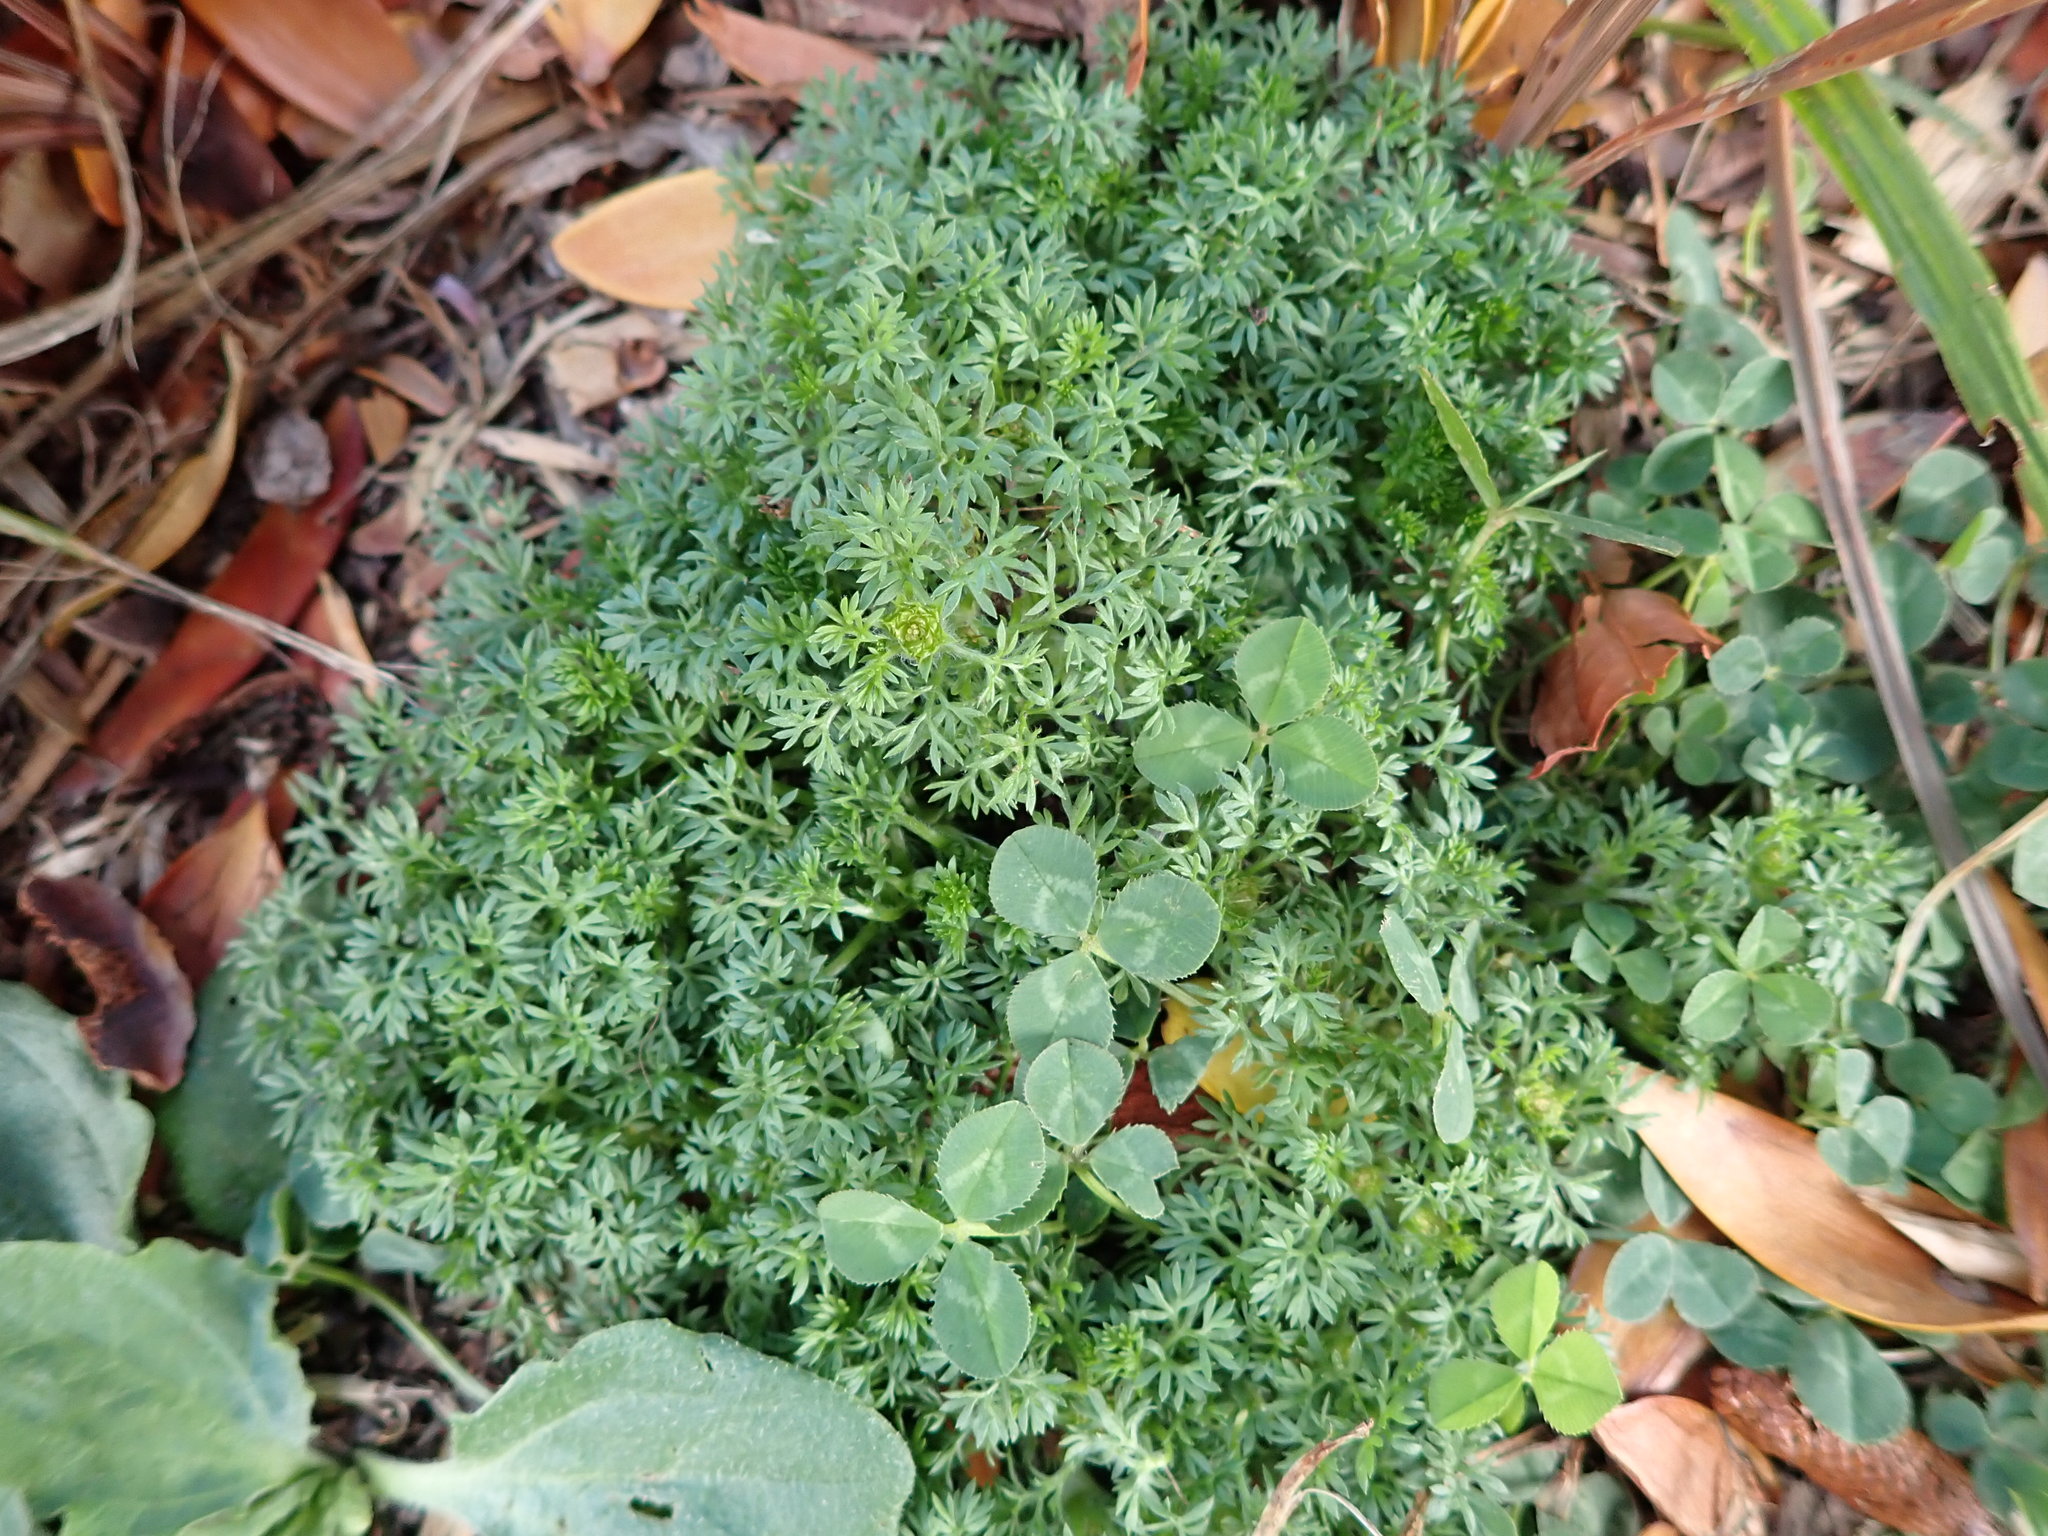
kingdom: Plantae
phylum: Tracheophyta
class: Magnoliopsida
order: Asterales
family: Asteraceae
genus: Soliva
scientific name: Soliva sessilis
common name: Field burrweed
